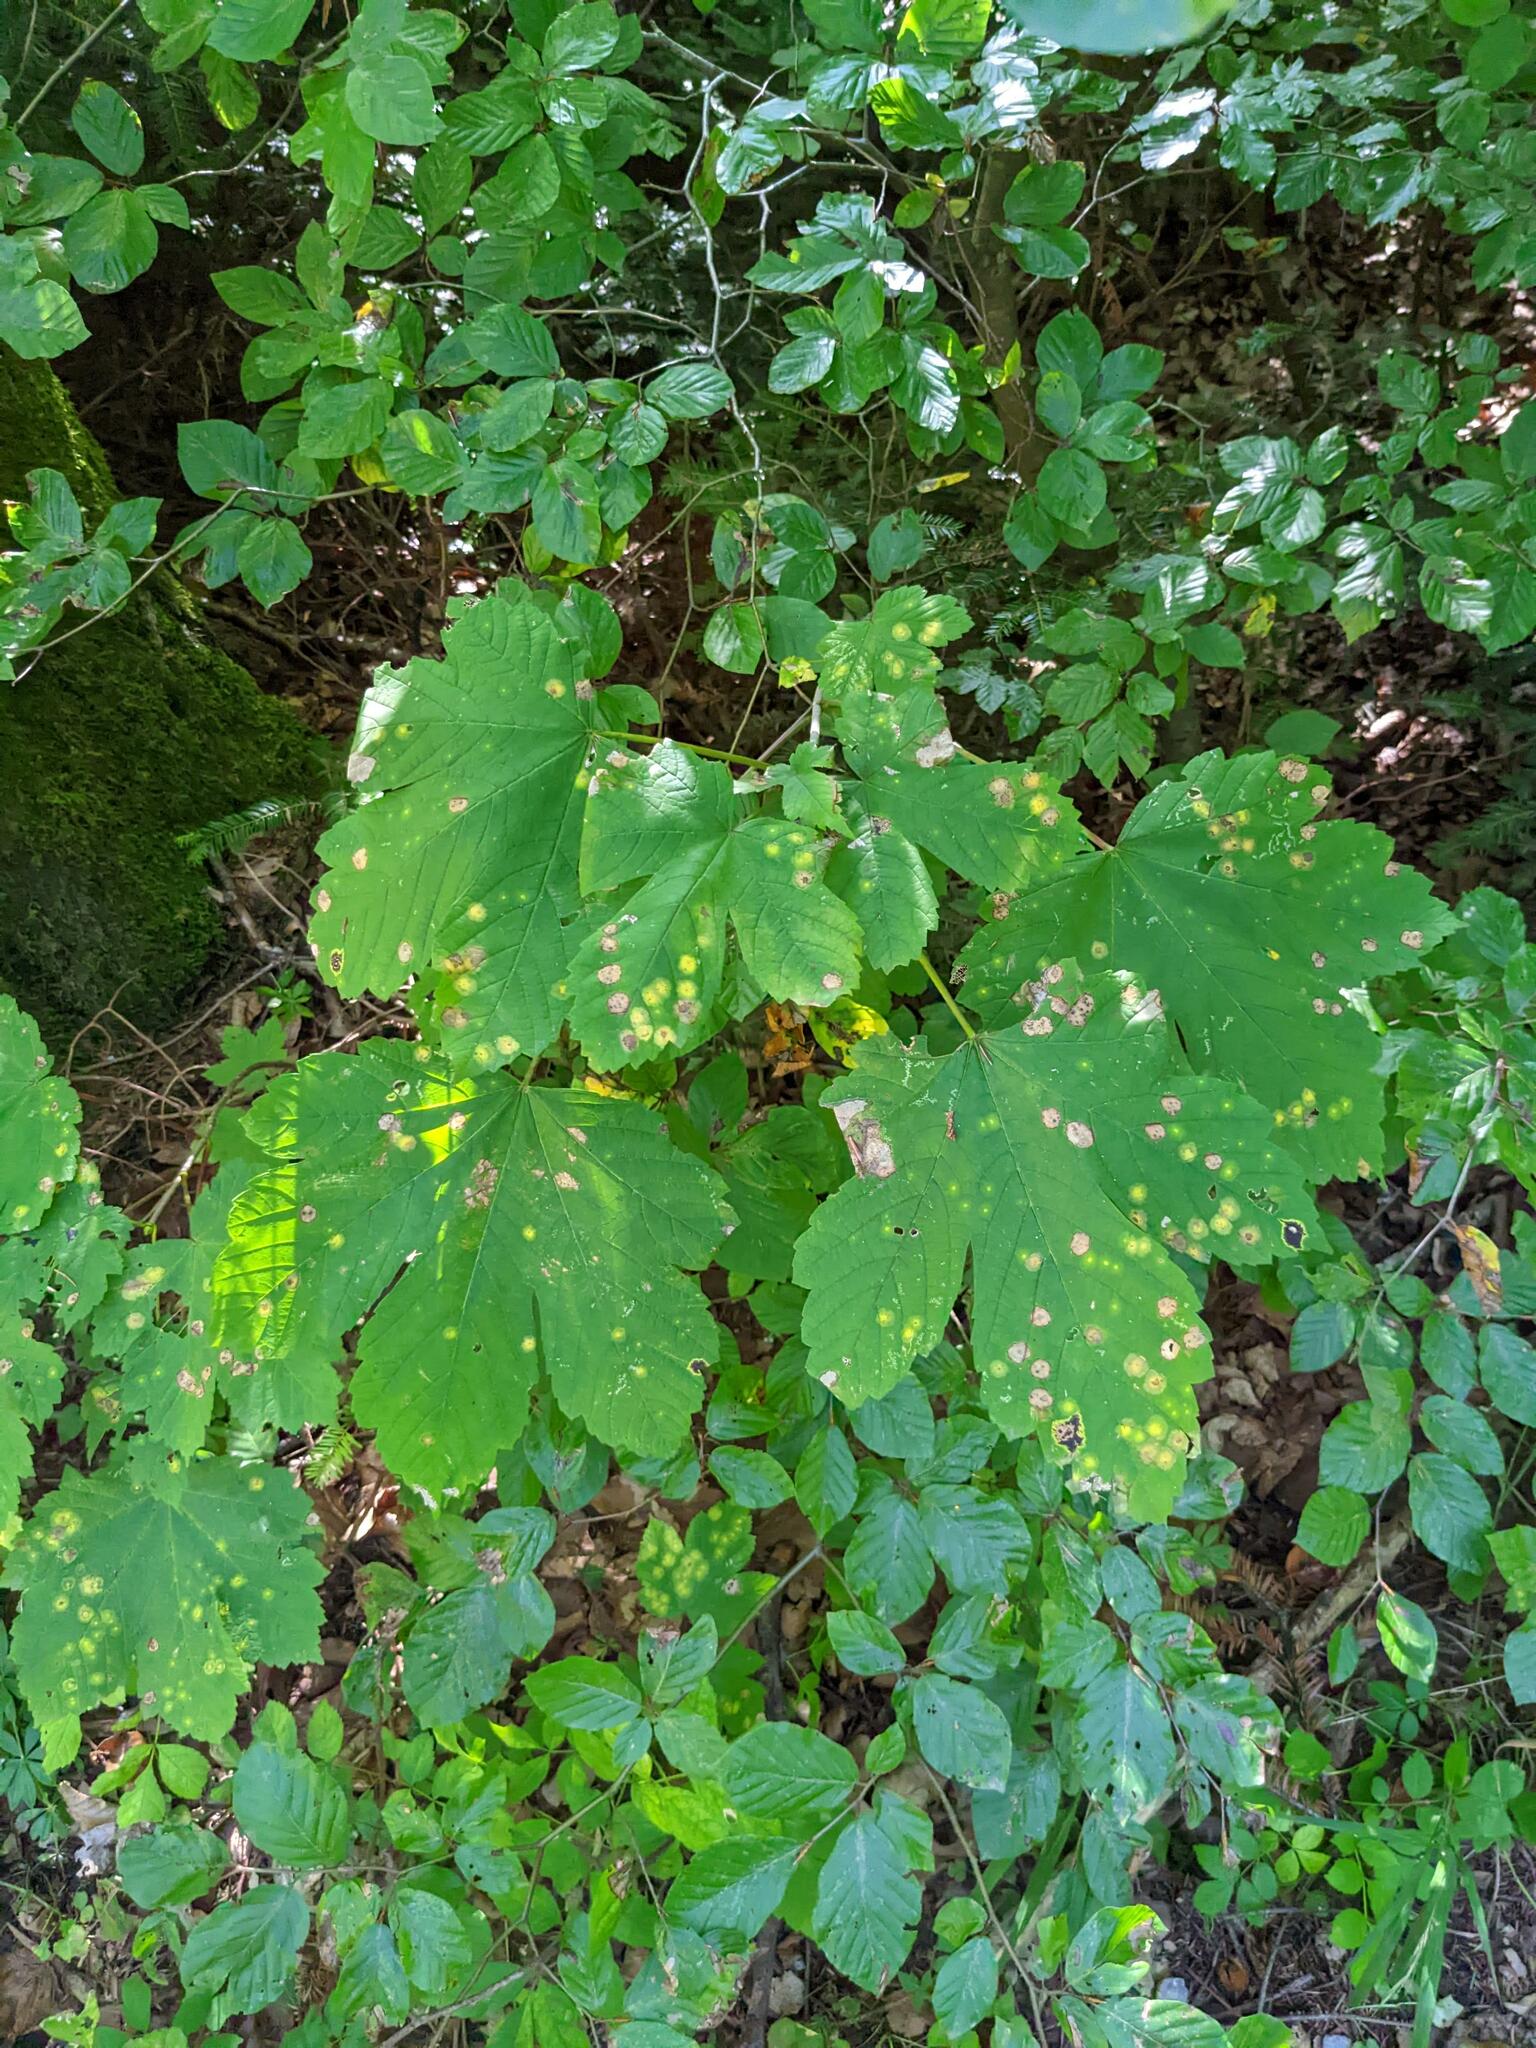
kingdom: Plantae
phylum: Tracheophyta
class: Magnoliopsida
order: Sapindales
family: Sapindaceae
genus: Acer
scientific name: Acer pseudoplatanus
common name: Sycamore
